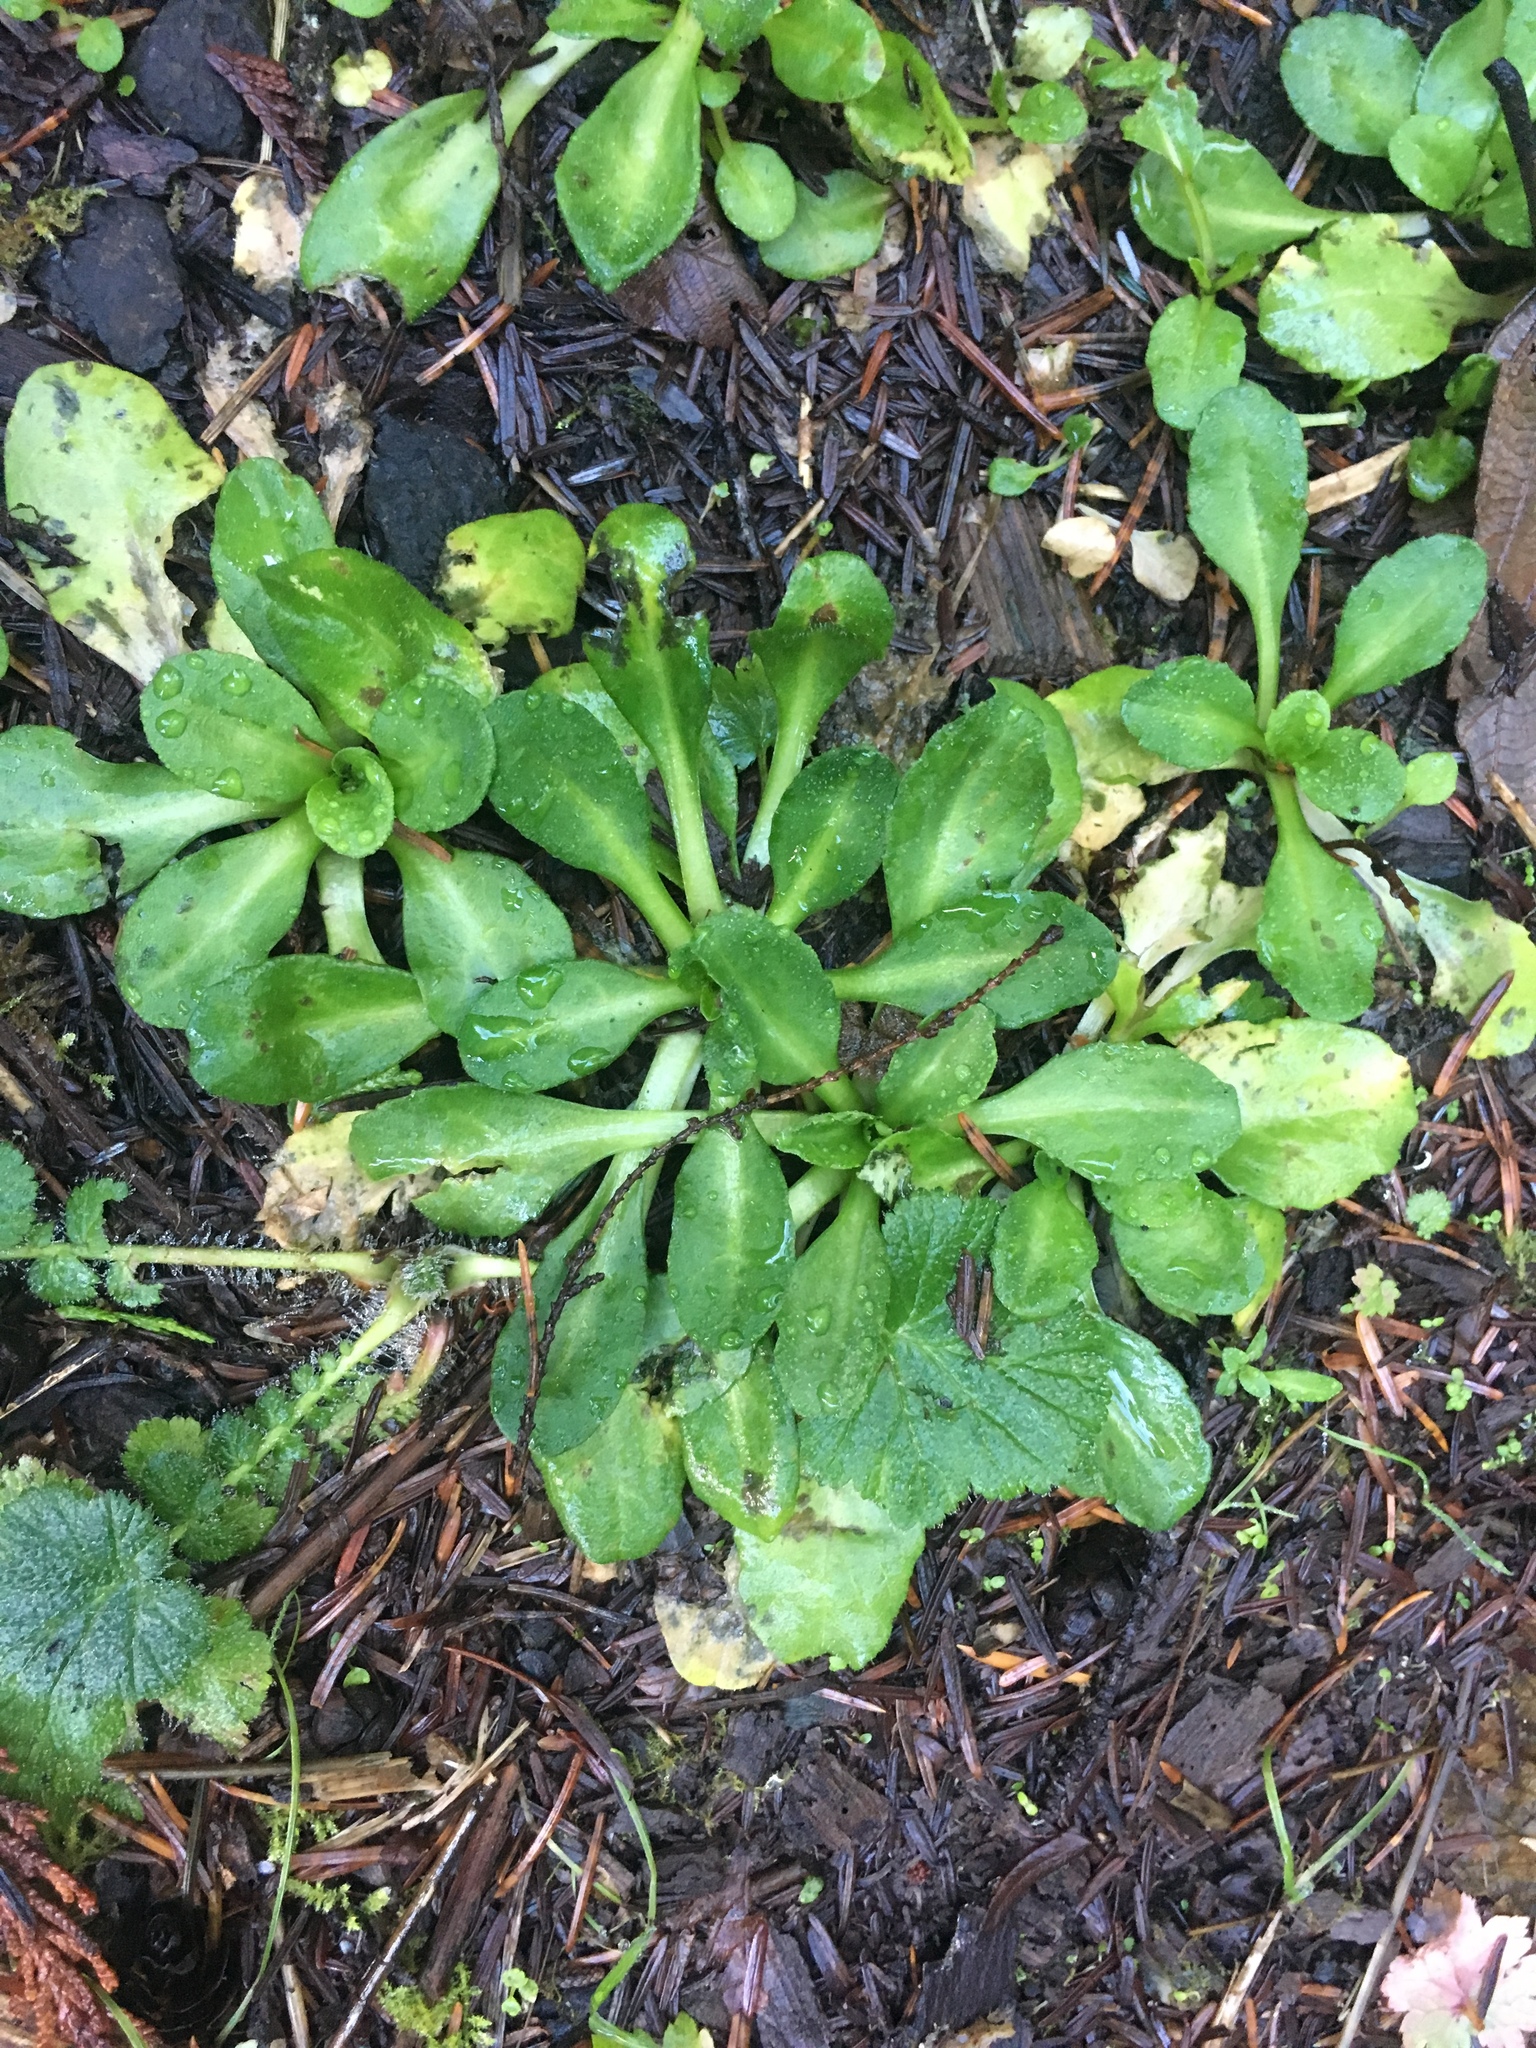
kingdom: Plantae
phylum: Tracheophyta
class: Magnoliopsida
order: Asterales
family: Asteraceae
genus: Bellis
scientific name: Bellis perennis
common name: Lawndaisy
